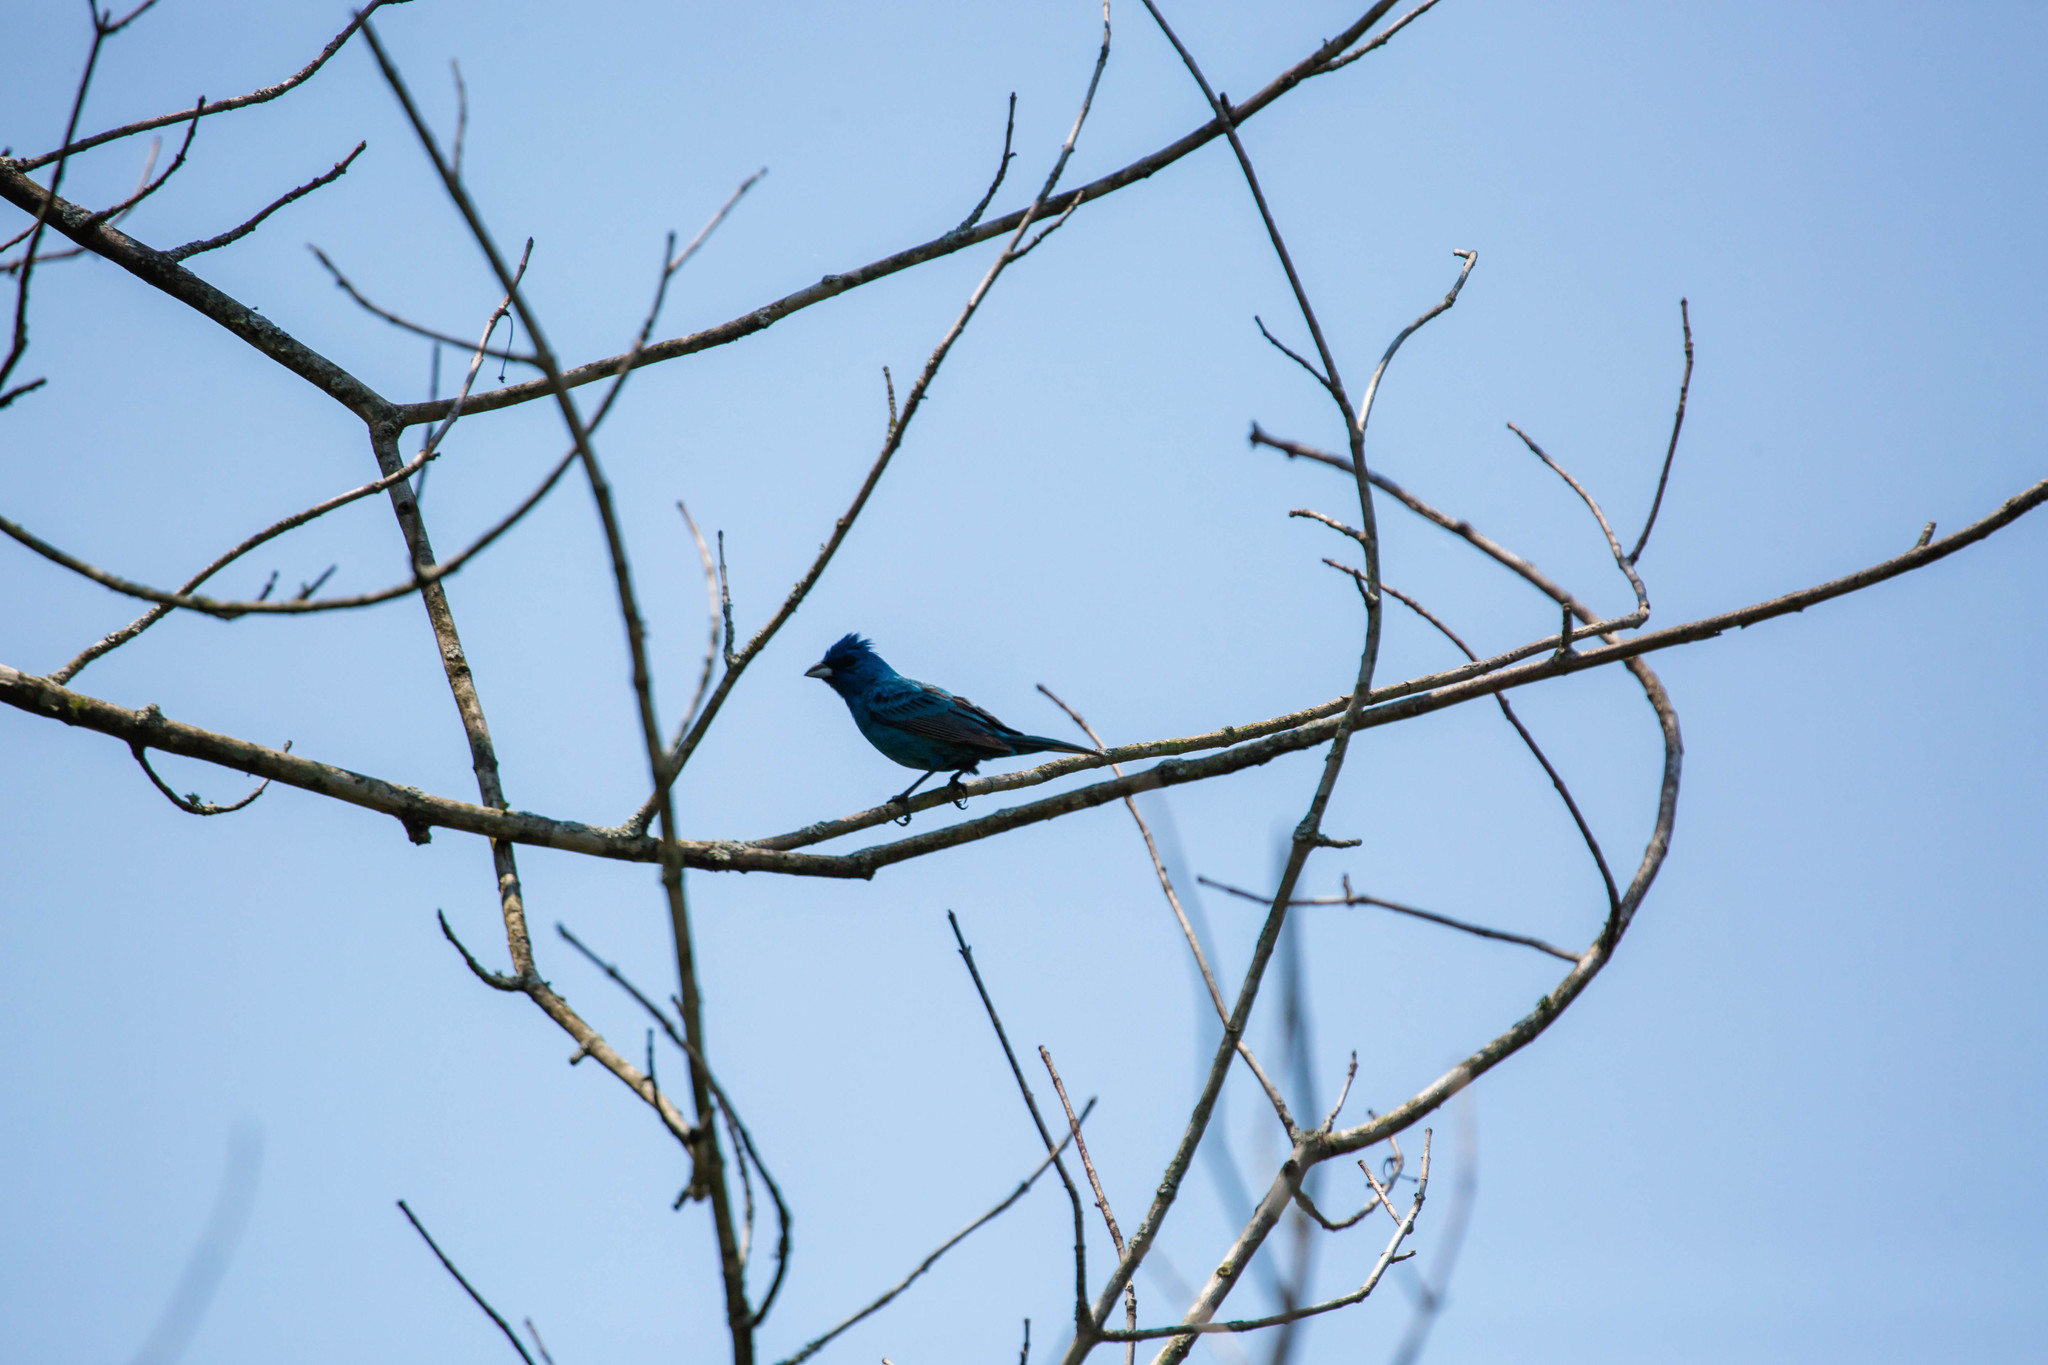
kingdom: Animalia
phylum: Chordata
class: Aves
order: Passeriformes
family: Cardinalidae
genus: Passerina
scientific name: Passerina cyanea
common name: Indigo bunting
